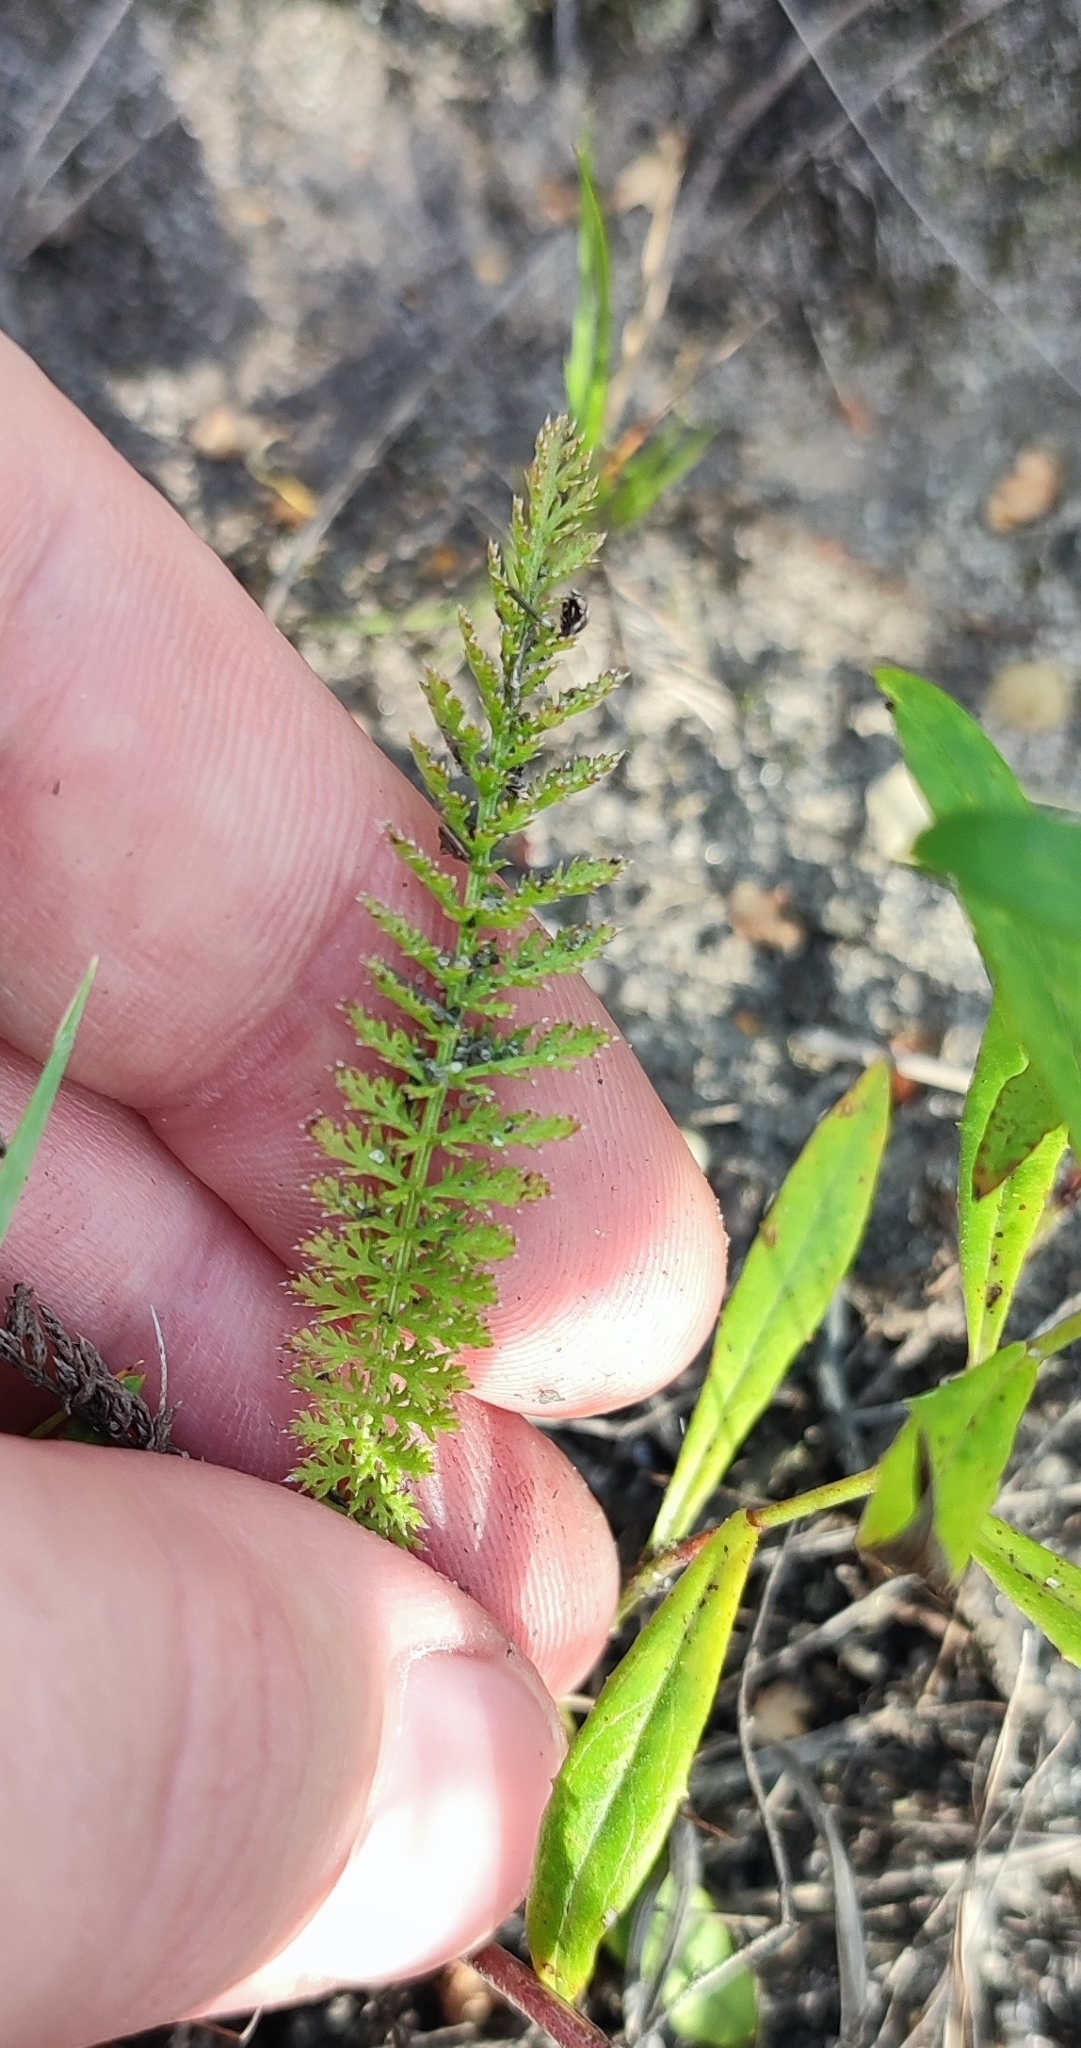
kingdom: Plantae
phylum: Tracheophyta
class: Magnoliopsida
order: Asterales
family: Asteraceae
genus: Achillea
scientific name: Achillea asiatica
